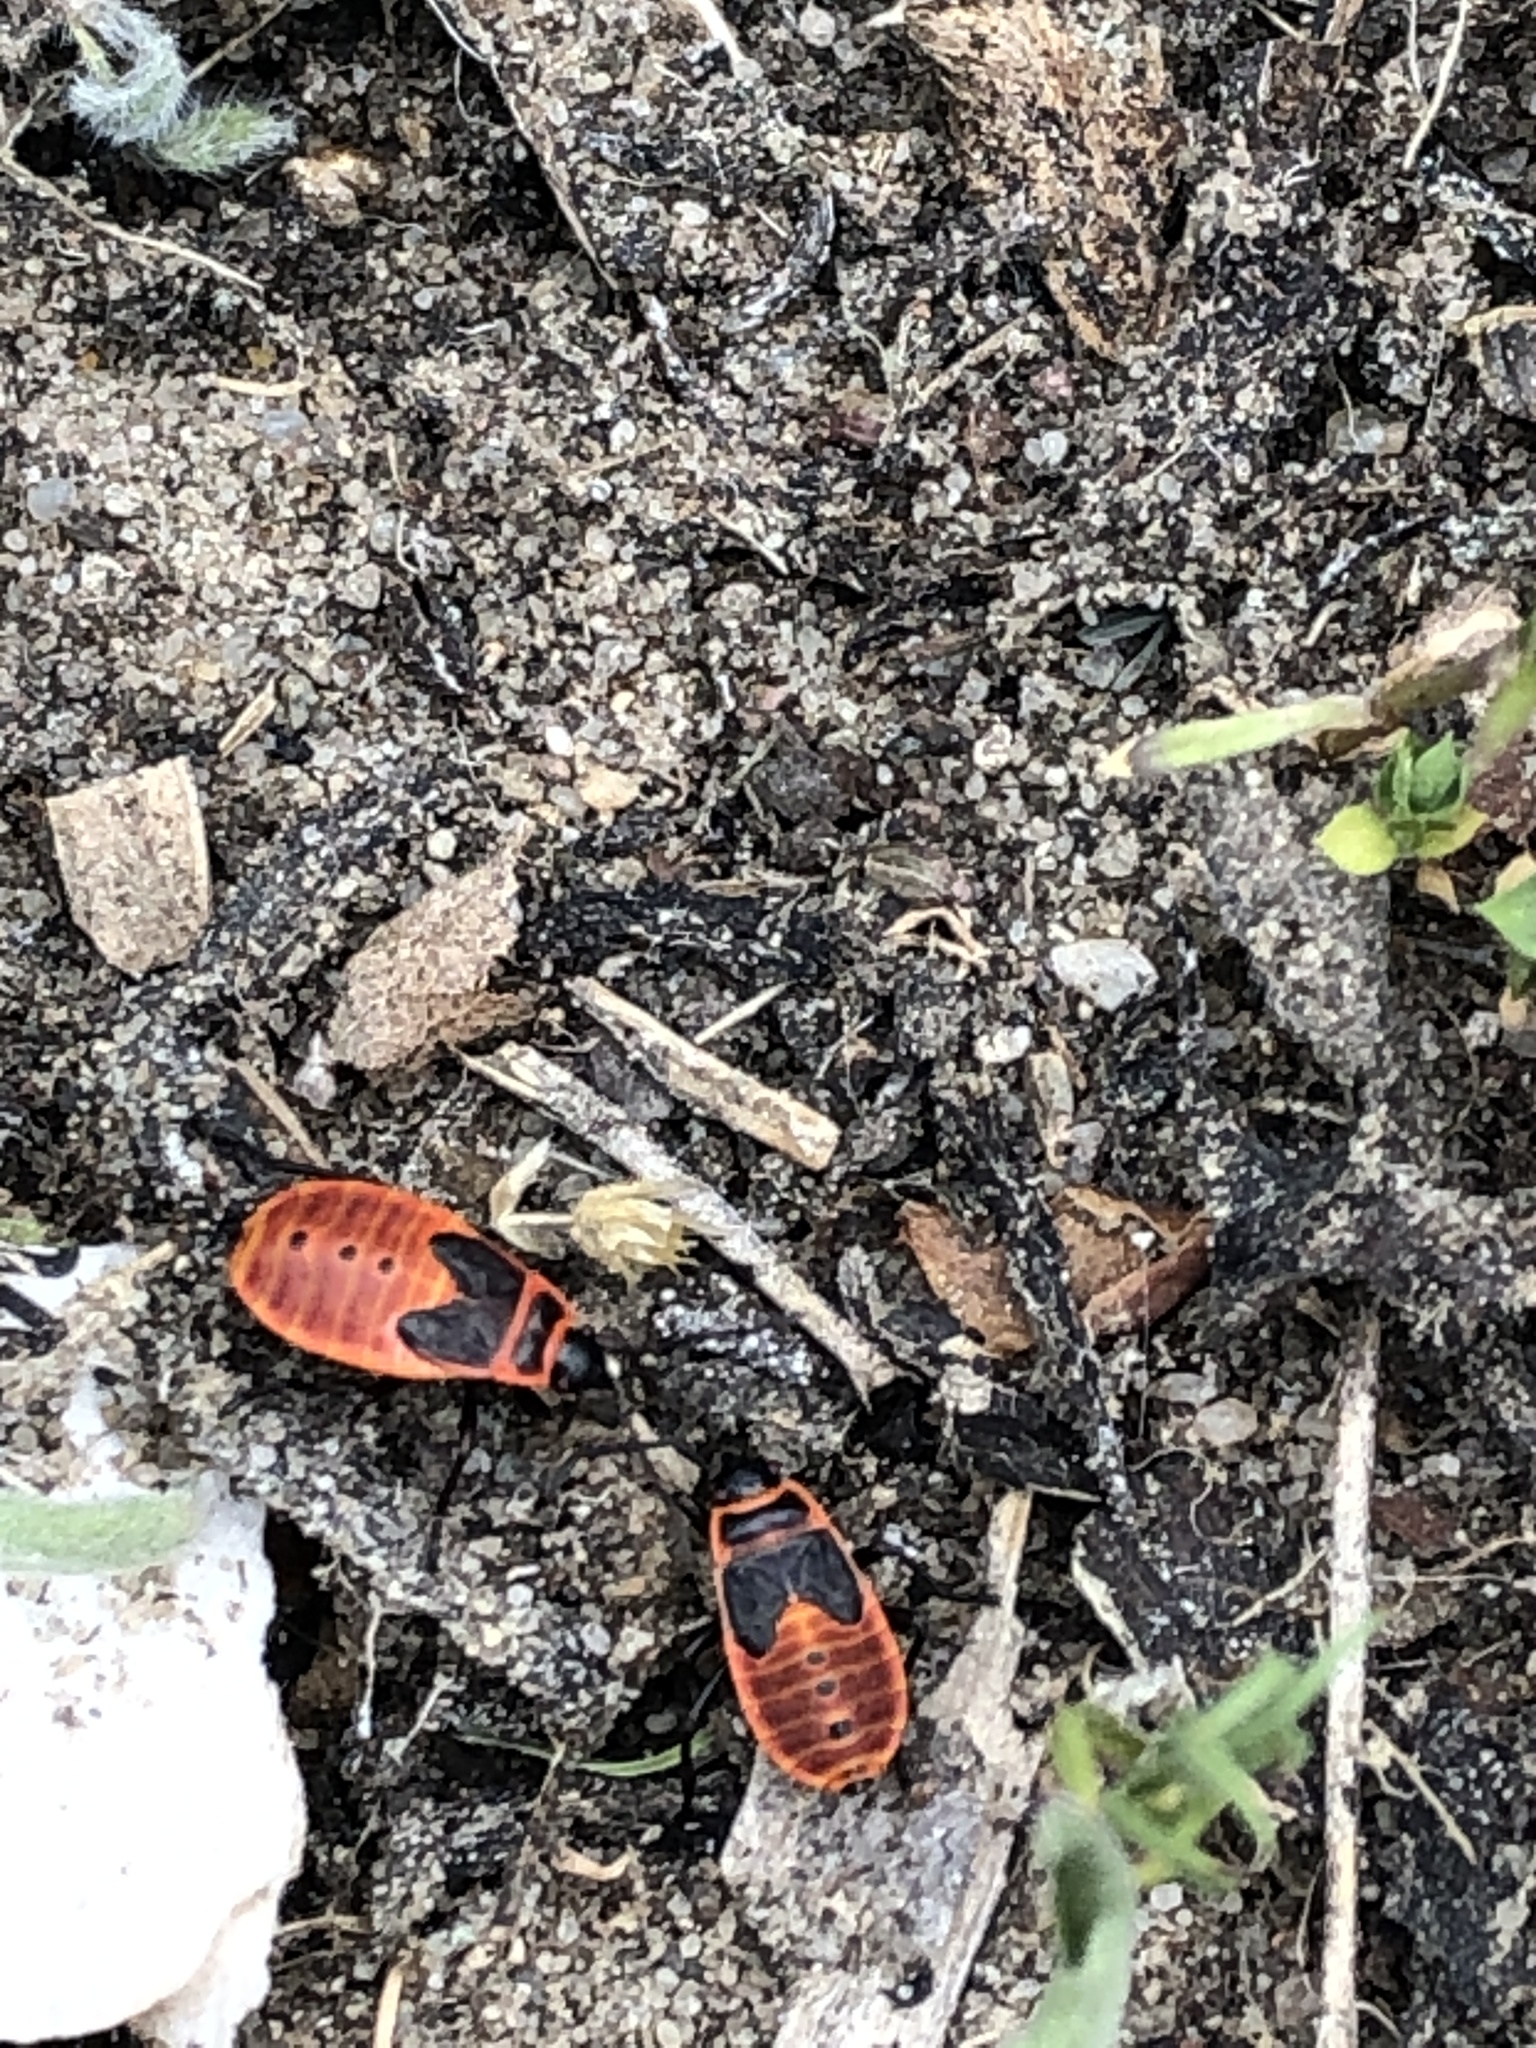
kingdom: Animalia
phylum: Arthropoda
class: Insecta
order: Hemiptera
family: Pyrrhocoridae
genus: Pyrrhocoris
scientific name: Pyrrhocoris apterus
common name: Firebug
